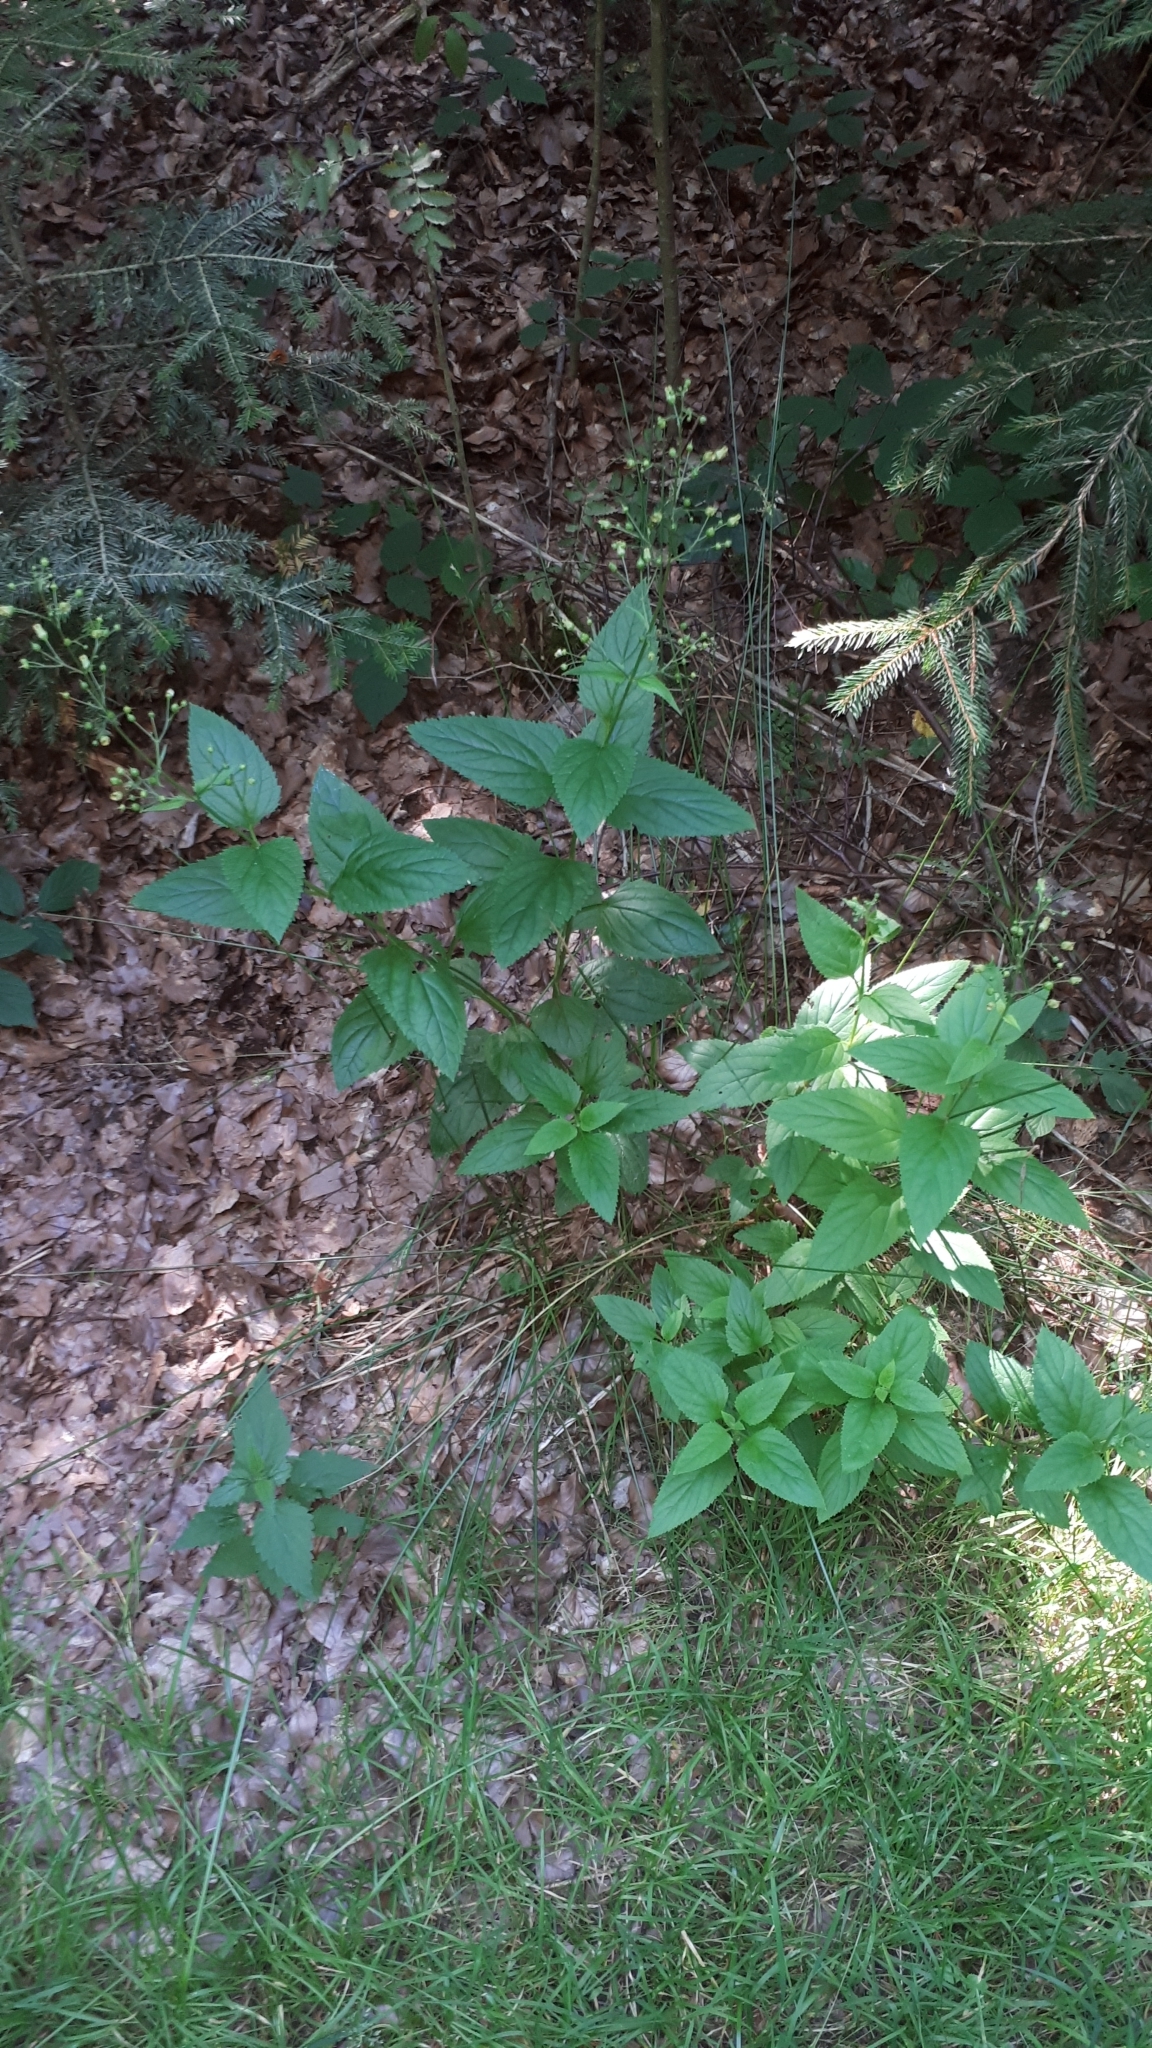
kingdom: Plantae
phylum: Tracheophyta
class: Magnoliopsida
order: Lamiales
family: Scrophulariaceae
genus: Scrophularia
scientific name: Scrophularia nodosa
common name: Common figwort
